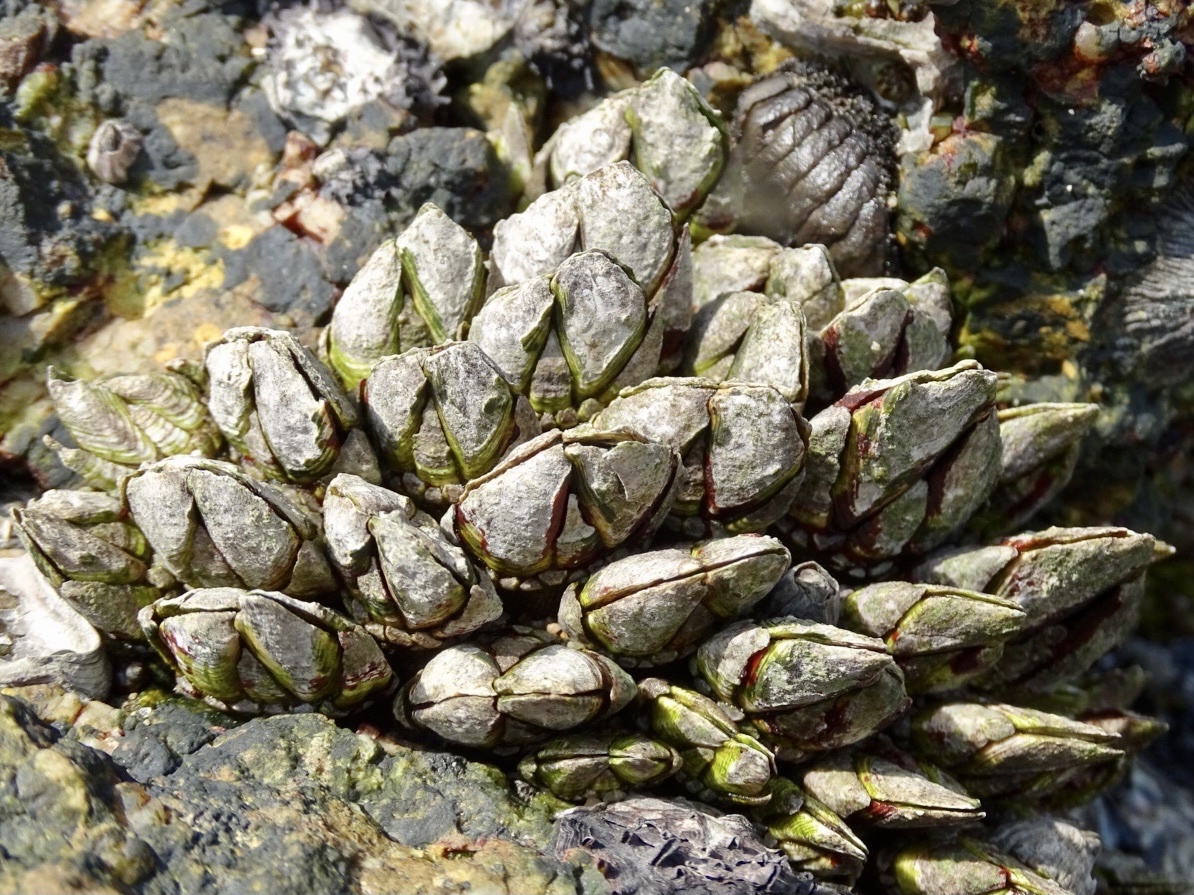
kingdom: Animalia
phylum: Arthropoda
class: Maxillopoda
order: Pedunculata
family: Pollicipedidae
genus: Capitulum
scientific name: Capitulum mitella
